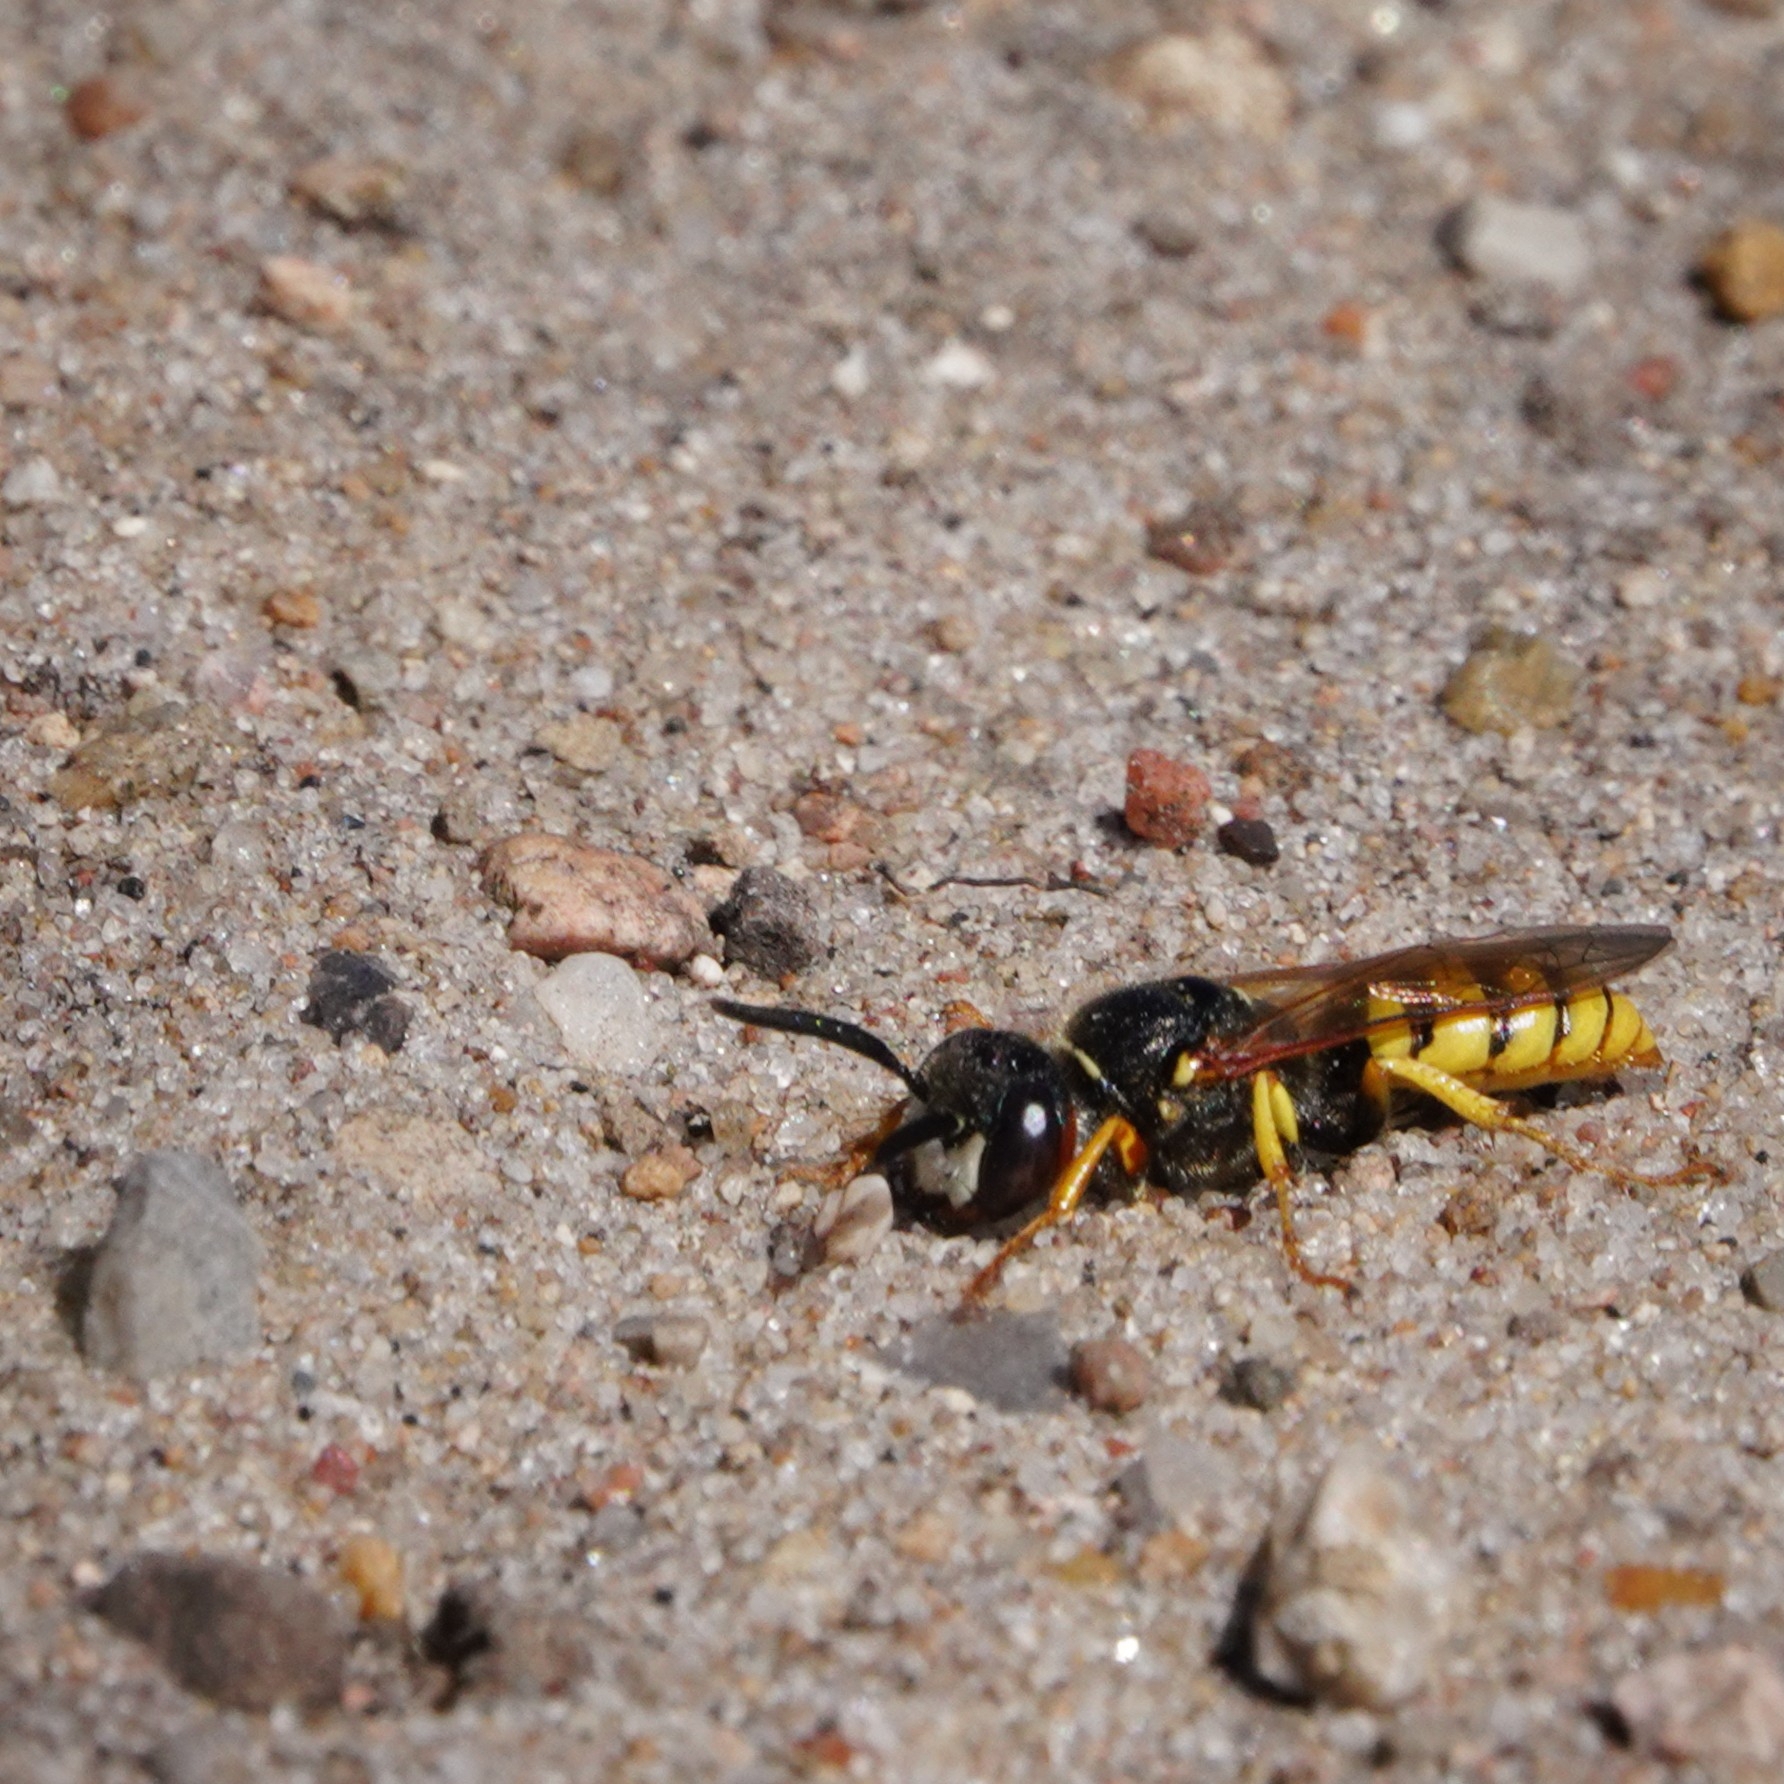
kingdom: Animalia
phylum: Arthropoda
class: Insecta
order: Hymenoptera
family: Crabronidae
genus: Philanthus
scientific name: Philanthus triangulum
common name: Bee wolf
